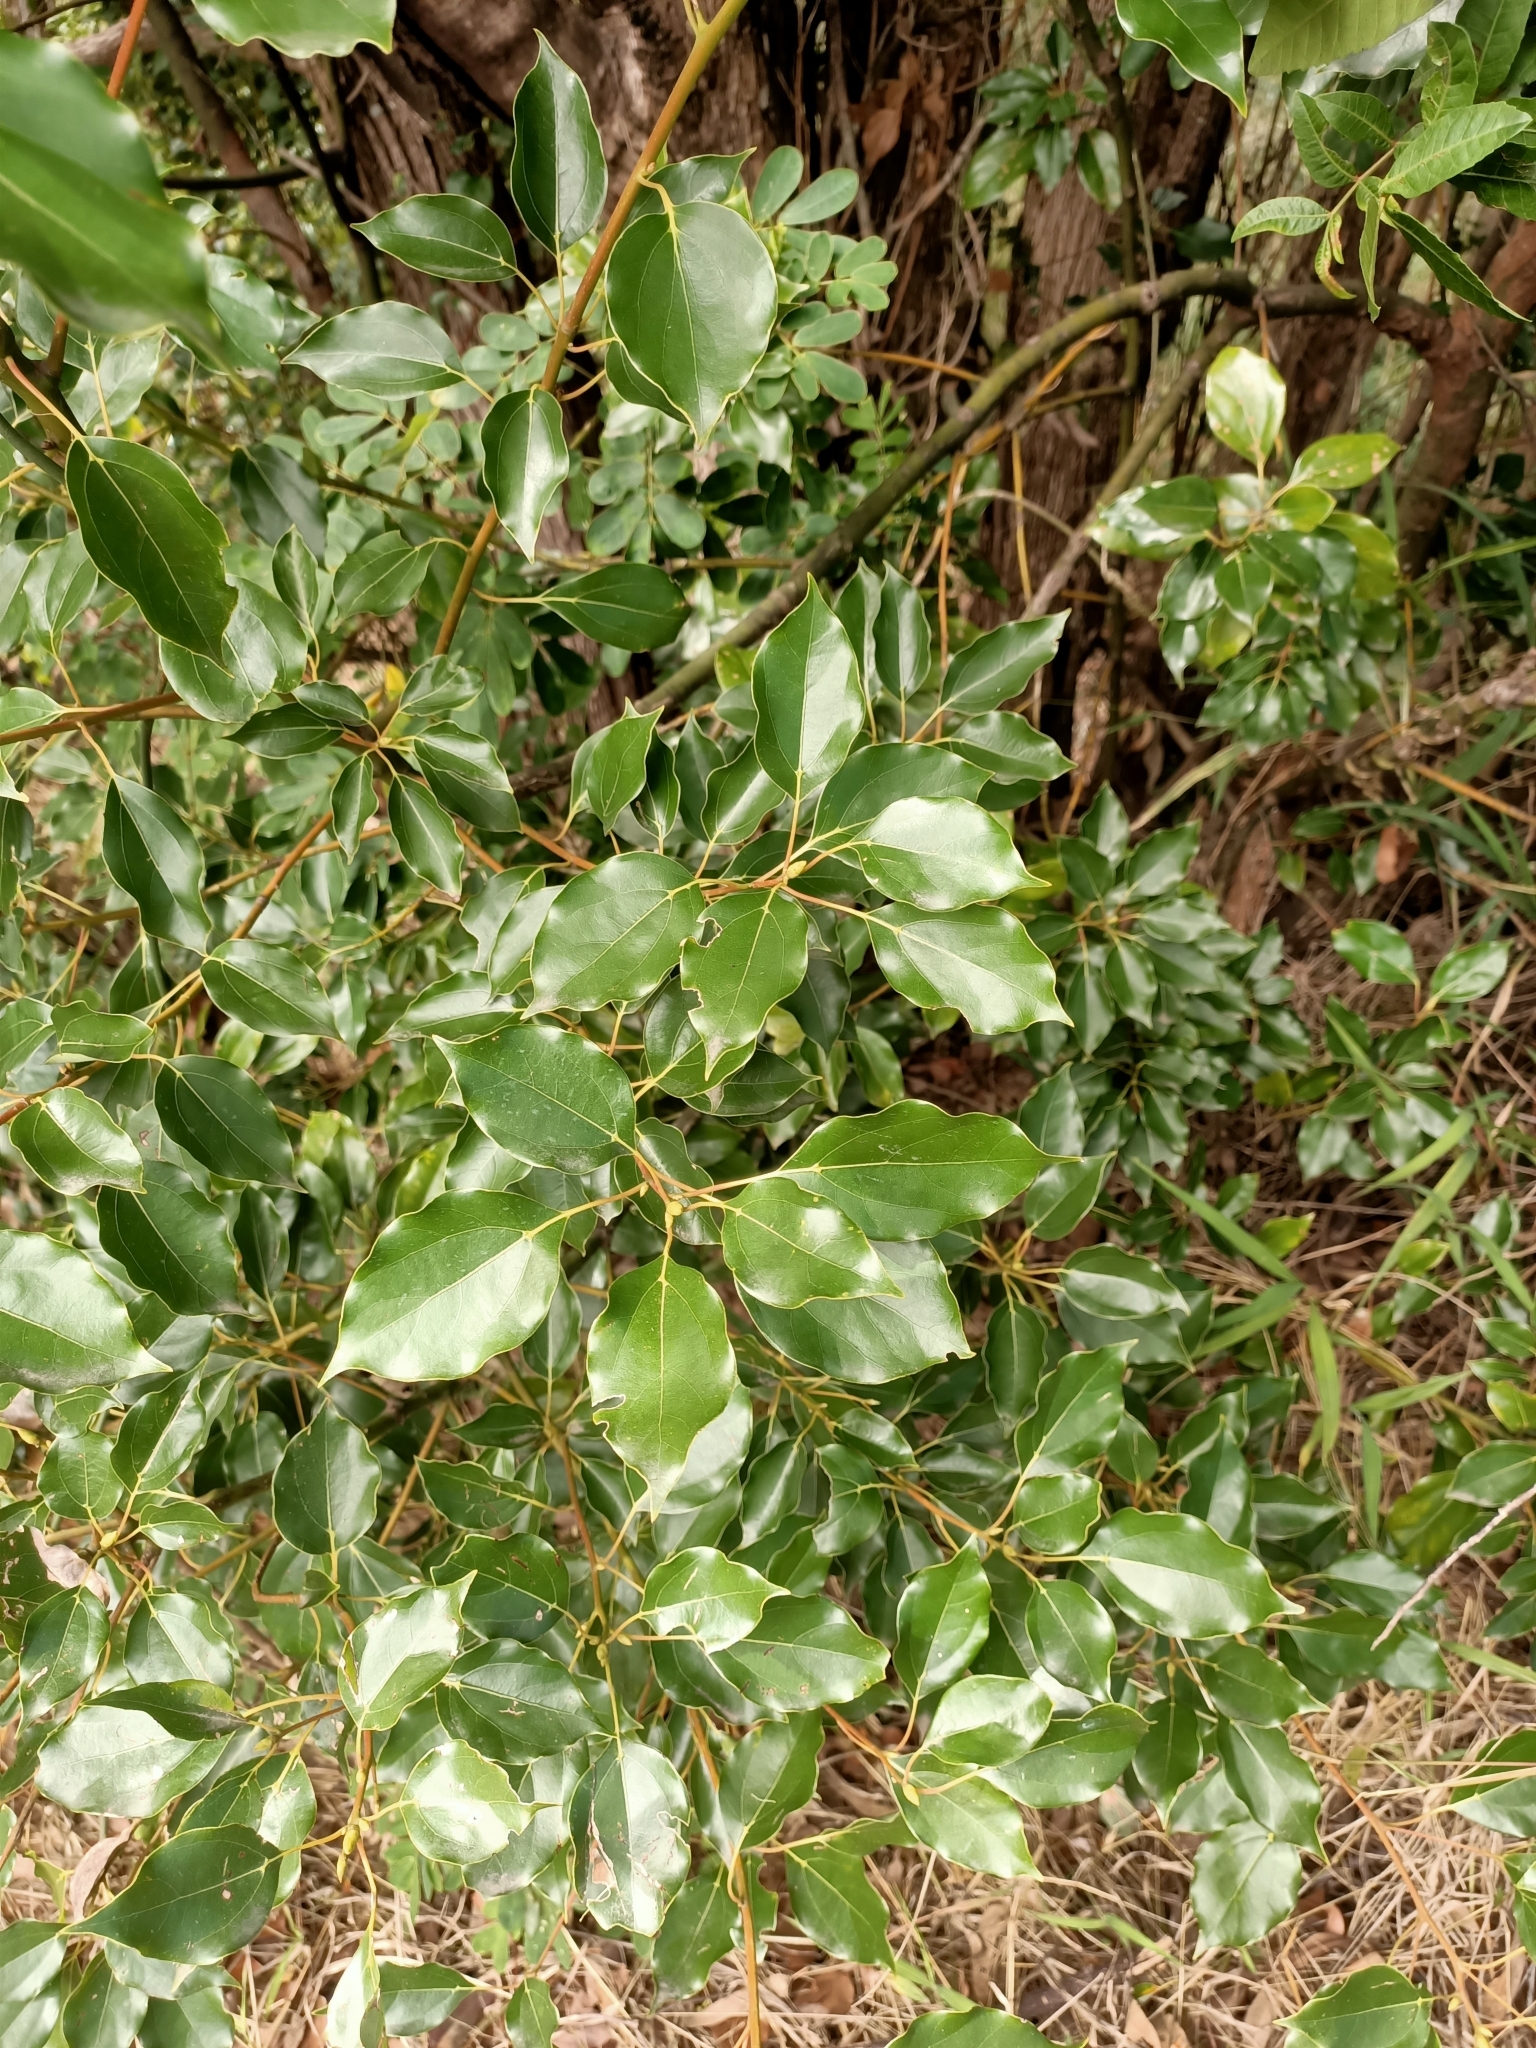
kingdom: Plantae
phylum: Tracheophyta
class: Magnoliopsida
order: Laurales
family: Lauraceae
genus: Cinnamomum
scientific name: Cinnamomum camphora
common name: Camphortree
